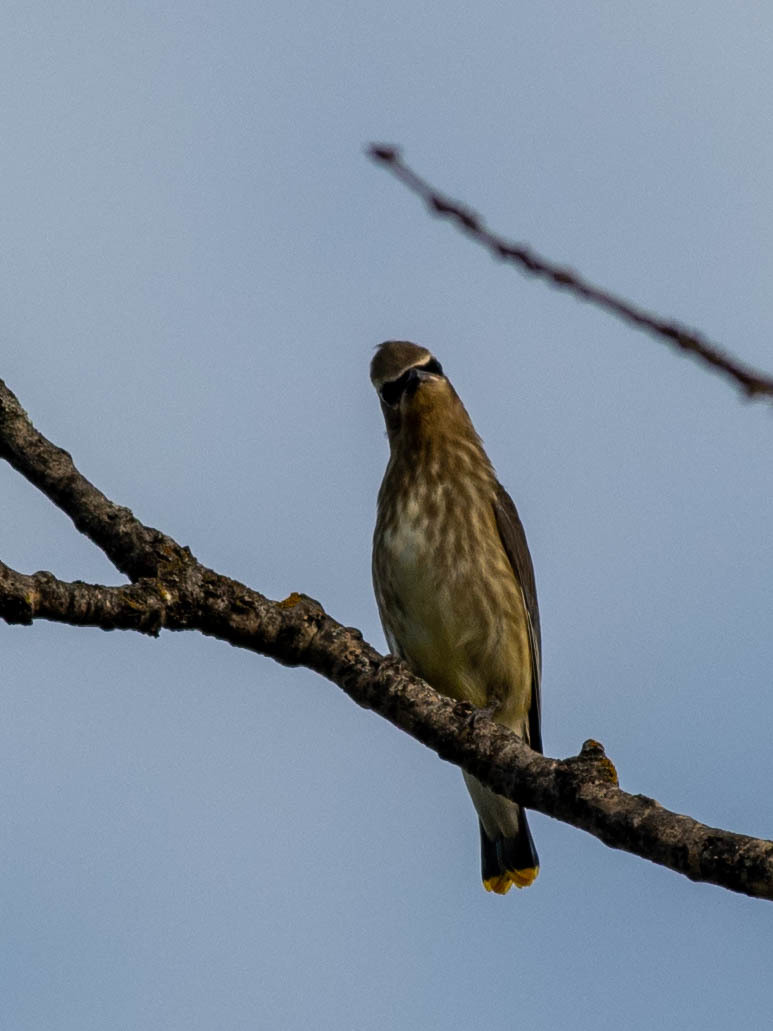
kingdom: Animalia
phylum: Chordata
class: Aves
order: Passeriformes
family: Bombycillidae
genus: Bombycilla
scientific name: Bombycilla cedrorum
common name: Cedar waxwing
